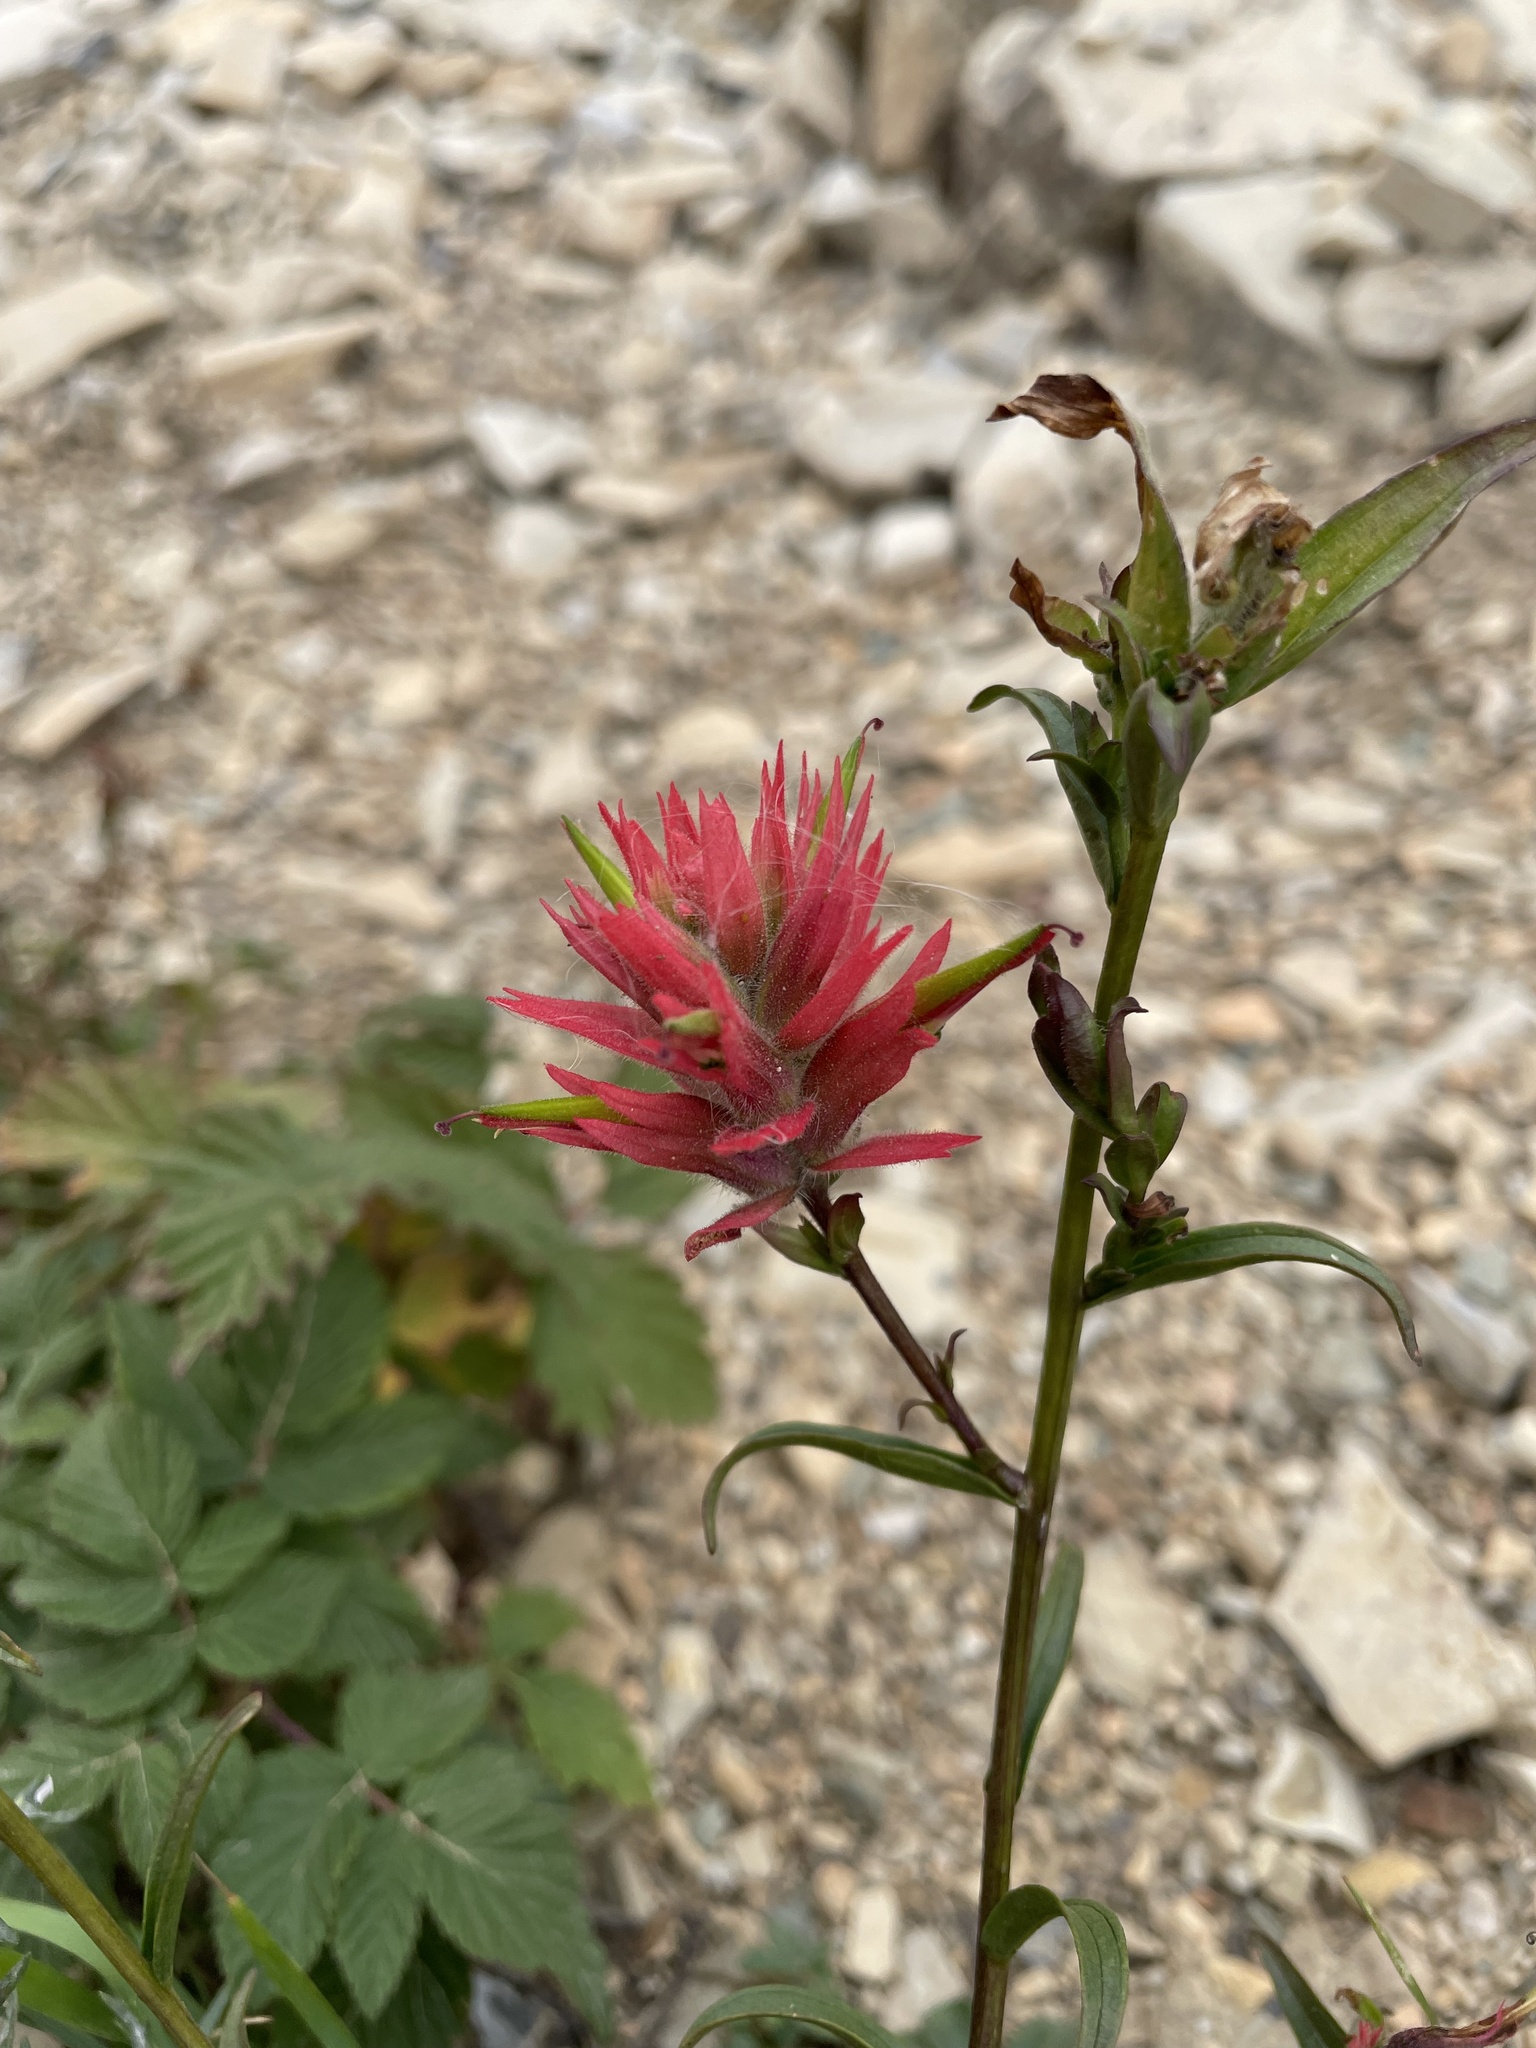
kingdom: Plantae
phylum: Tracheophyta
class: Magnoliopsida
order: Lamiales
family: Orobanchaceae
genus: Castilleja
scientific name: Castilleja miniata
